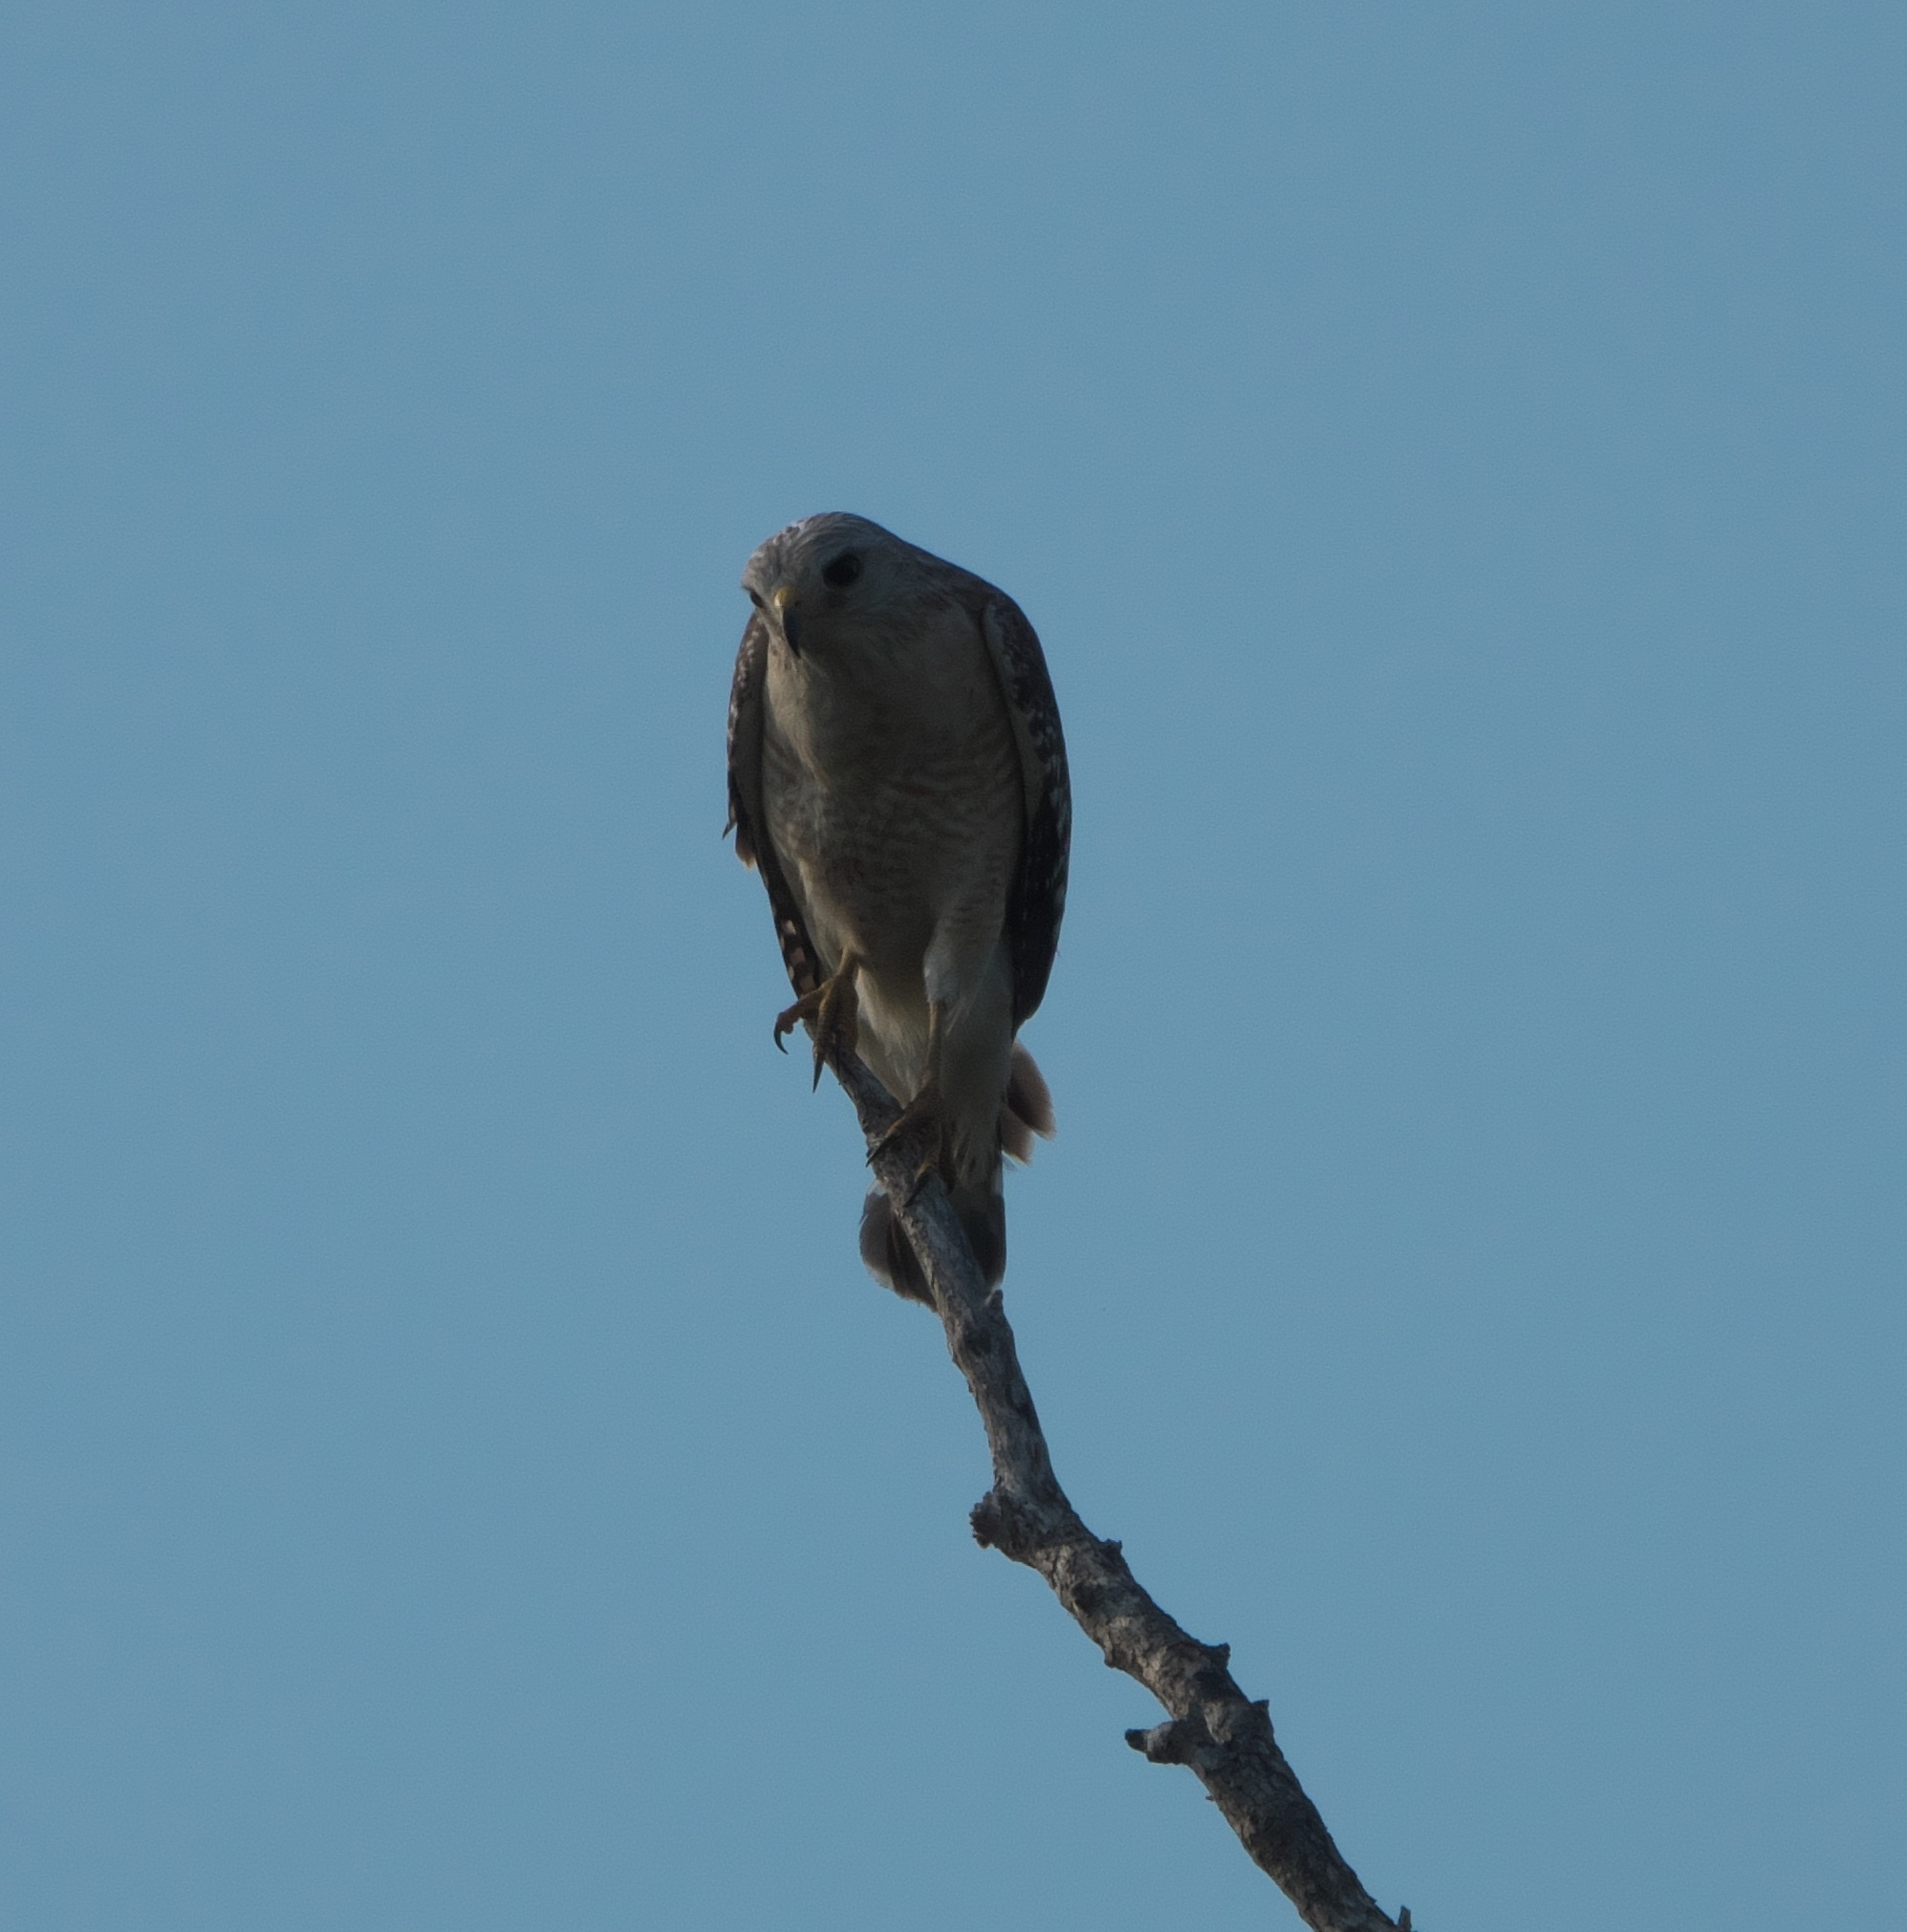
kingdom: Animalia
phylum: Chordata
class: Aves
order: Accipitriformes
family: Accipitridae
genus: Buteo
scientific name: Buteo lineatus
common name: Red-shouldered hawk
